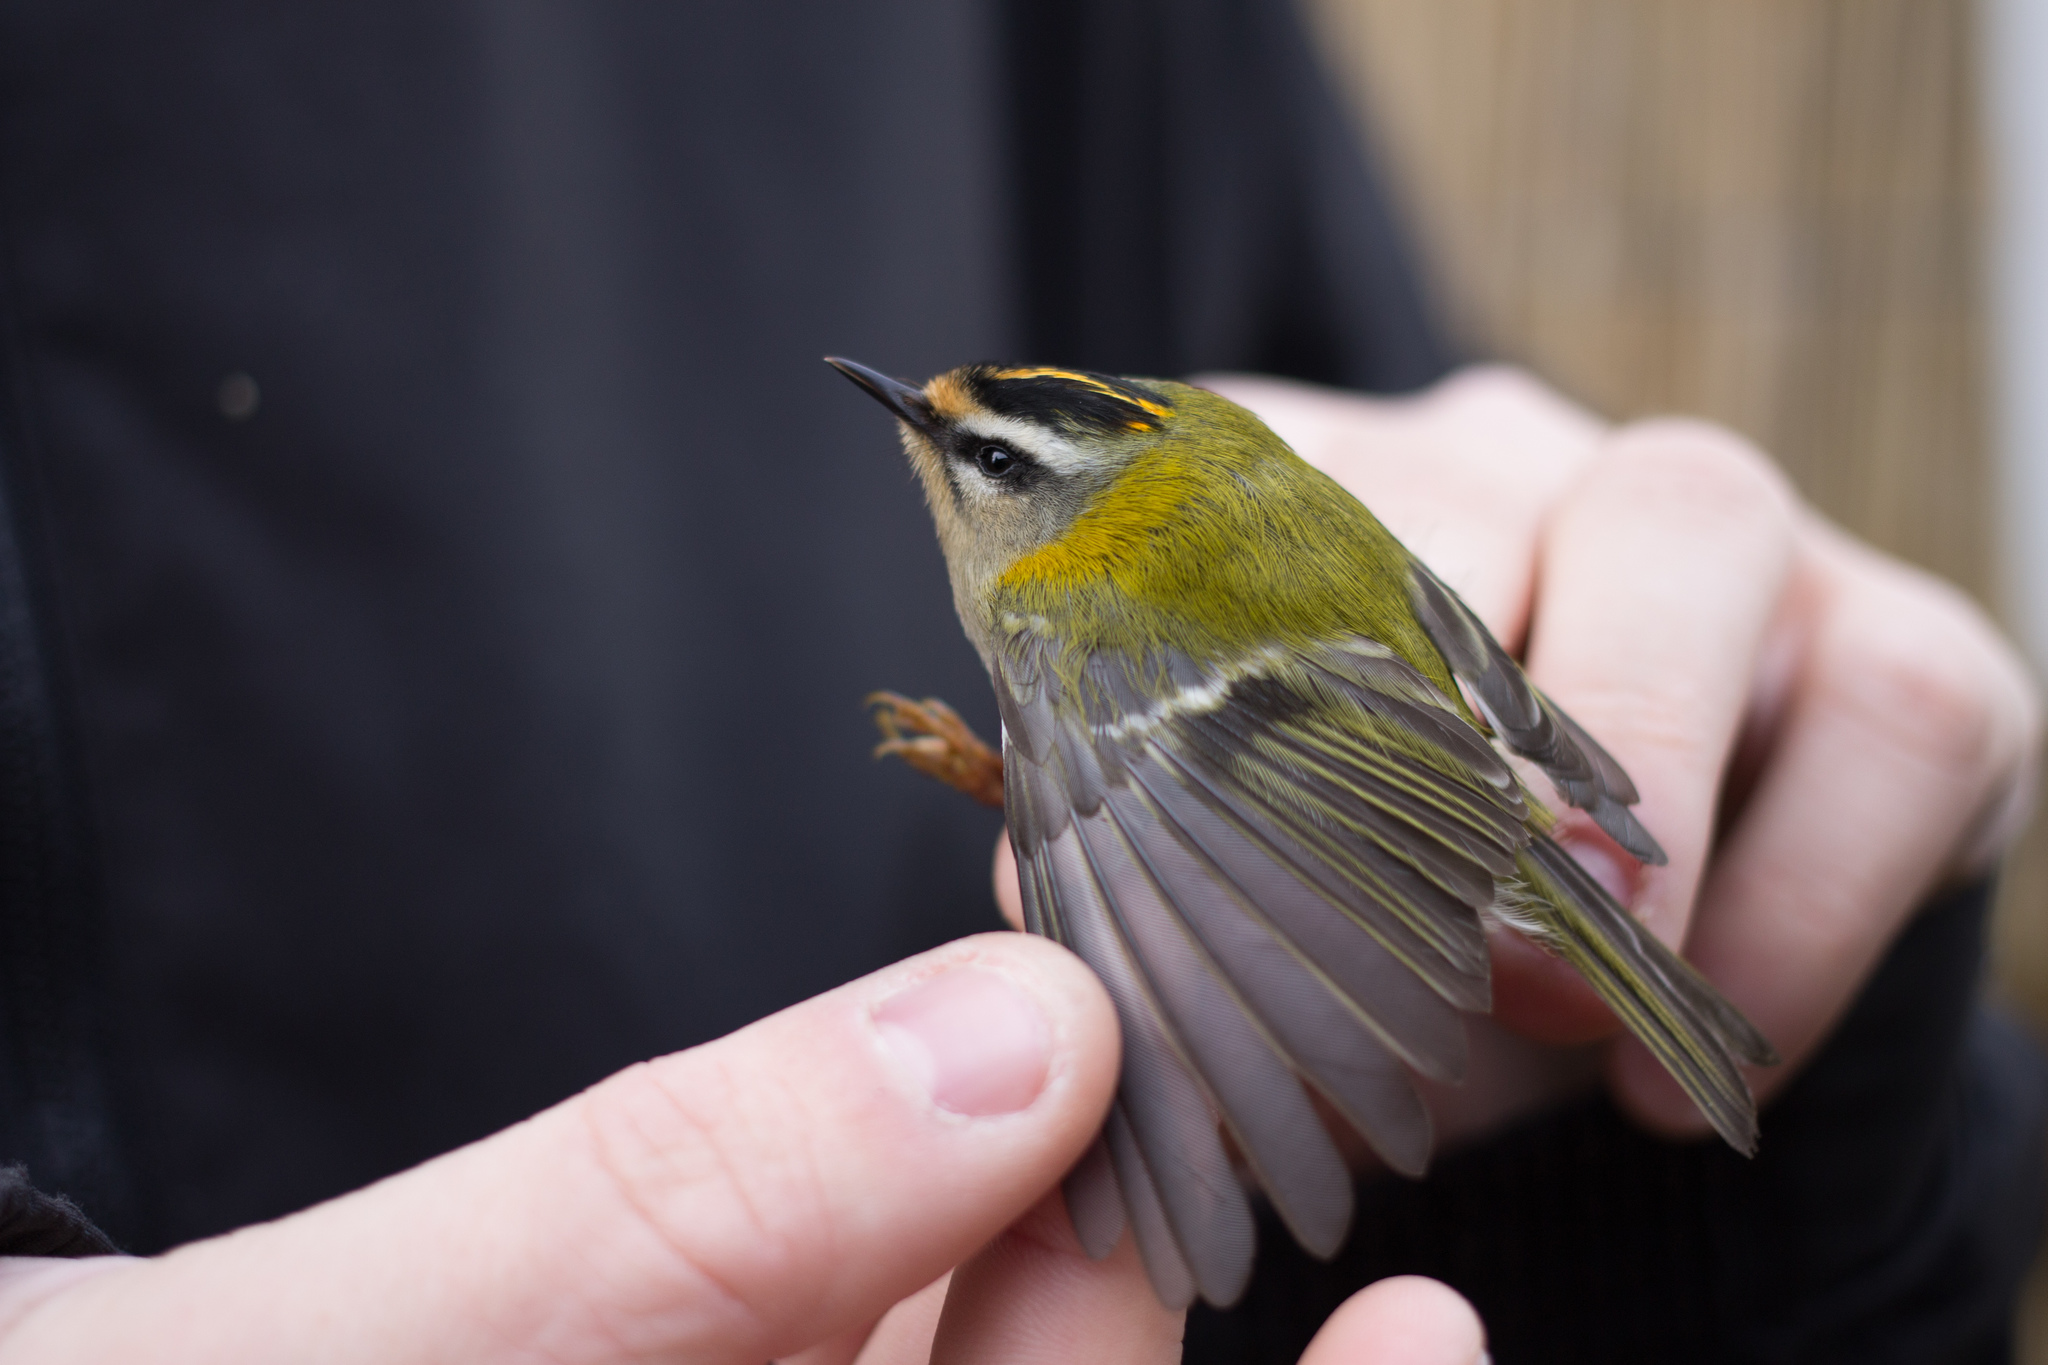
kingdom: Animalia
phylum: Chordata
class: Aves
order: Passeriformes
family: Regulidae
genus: Regulus
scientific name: Regulus ignicapilla
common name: Firecrest
